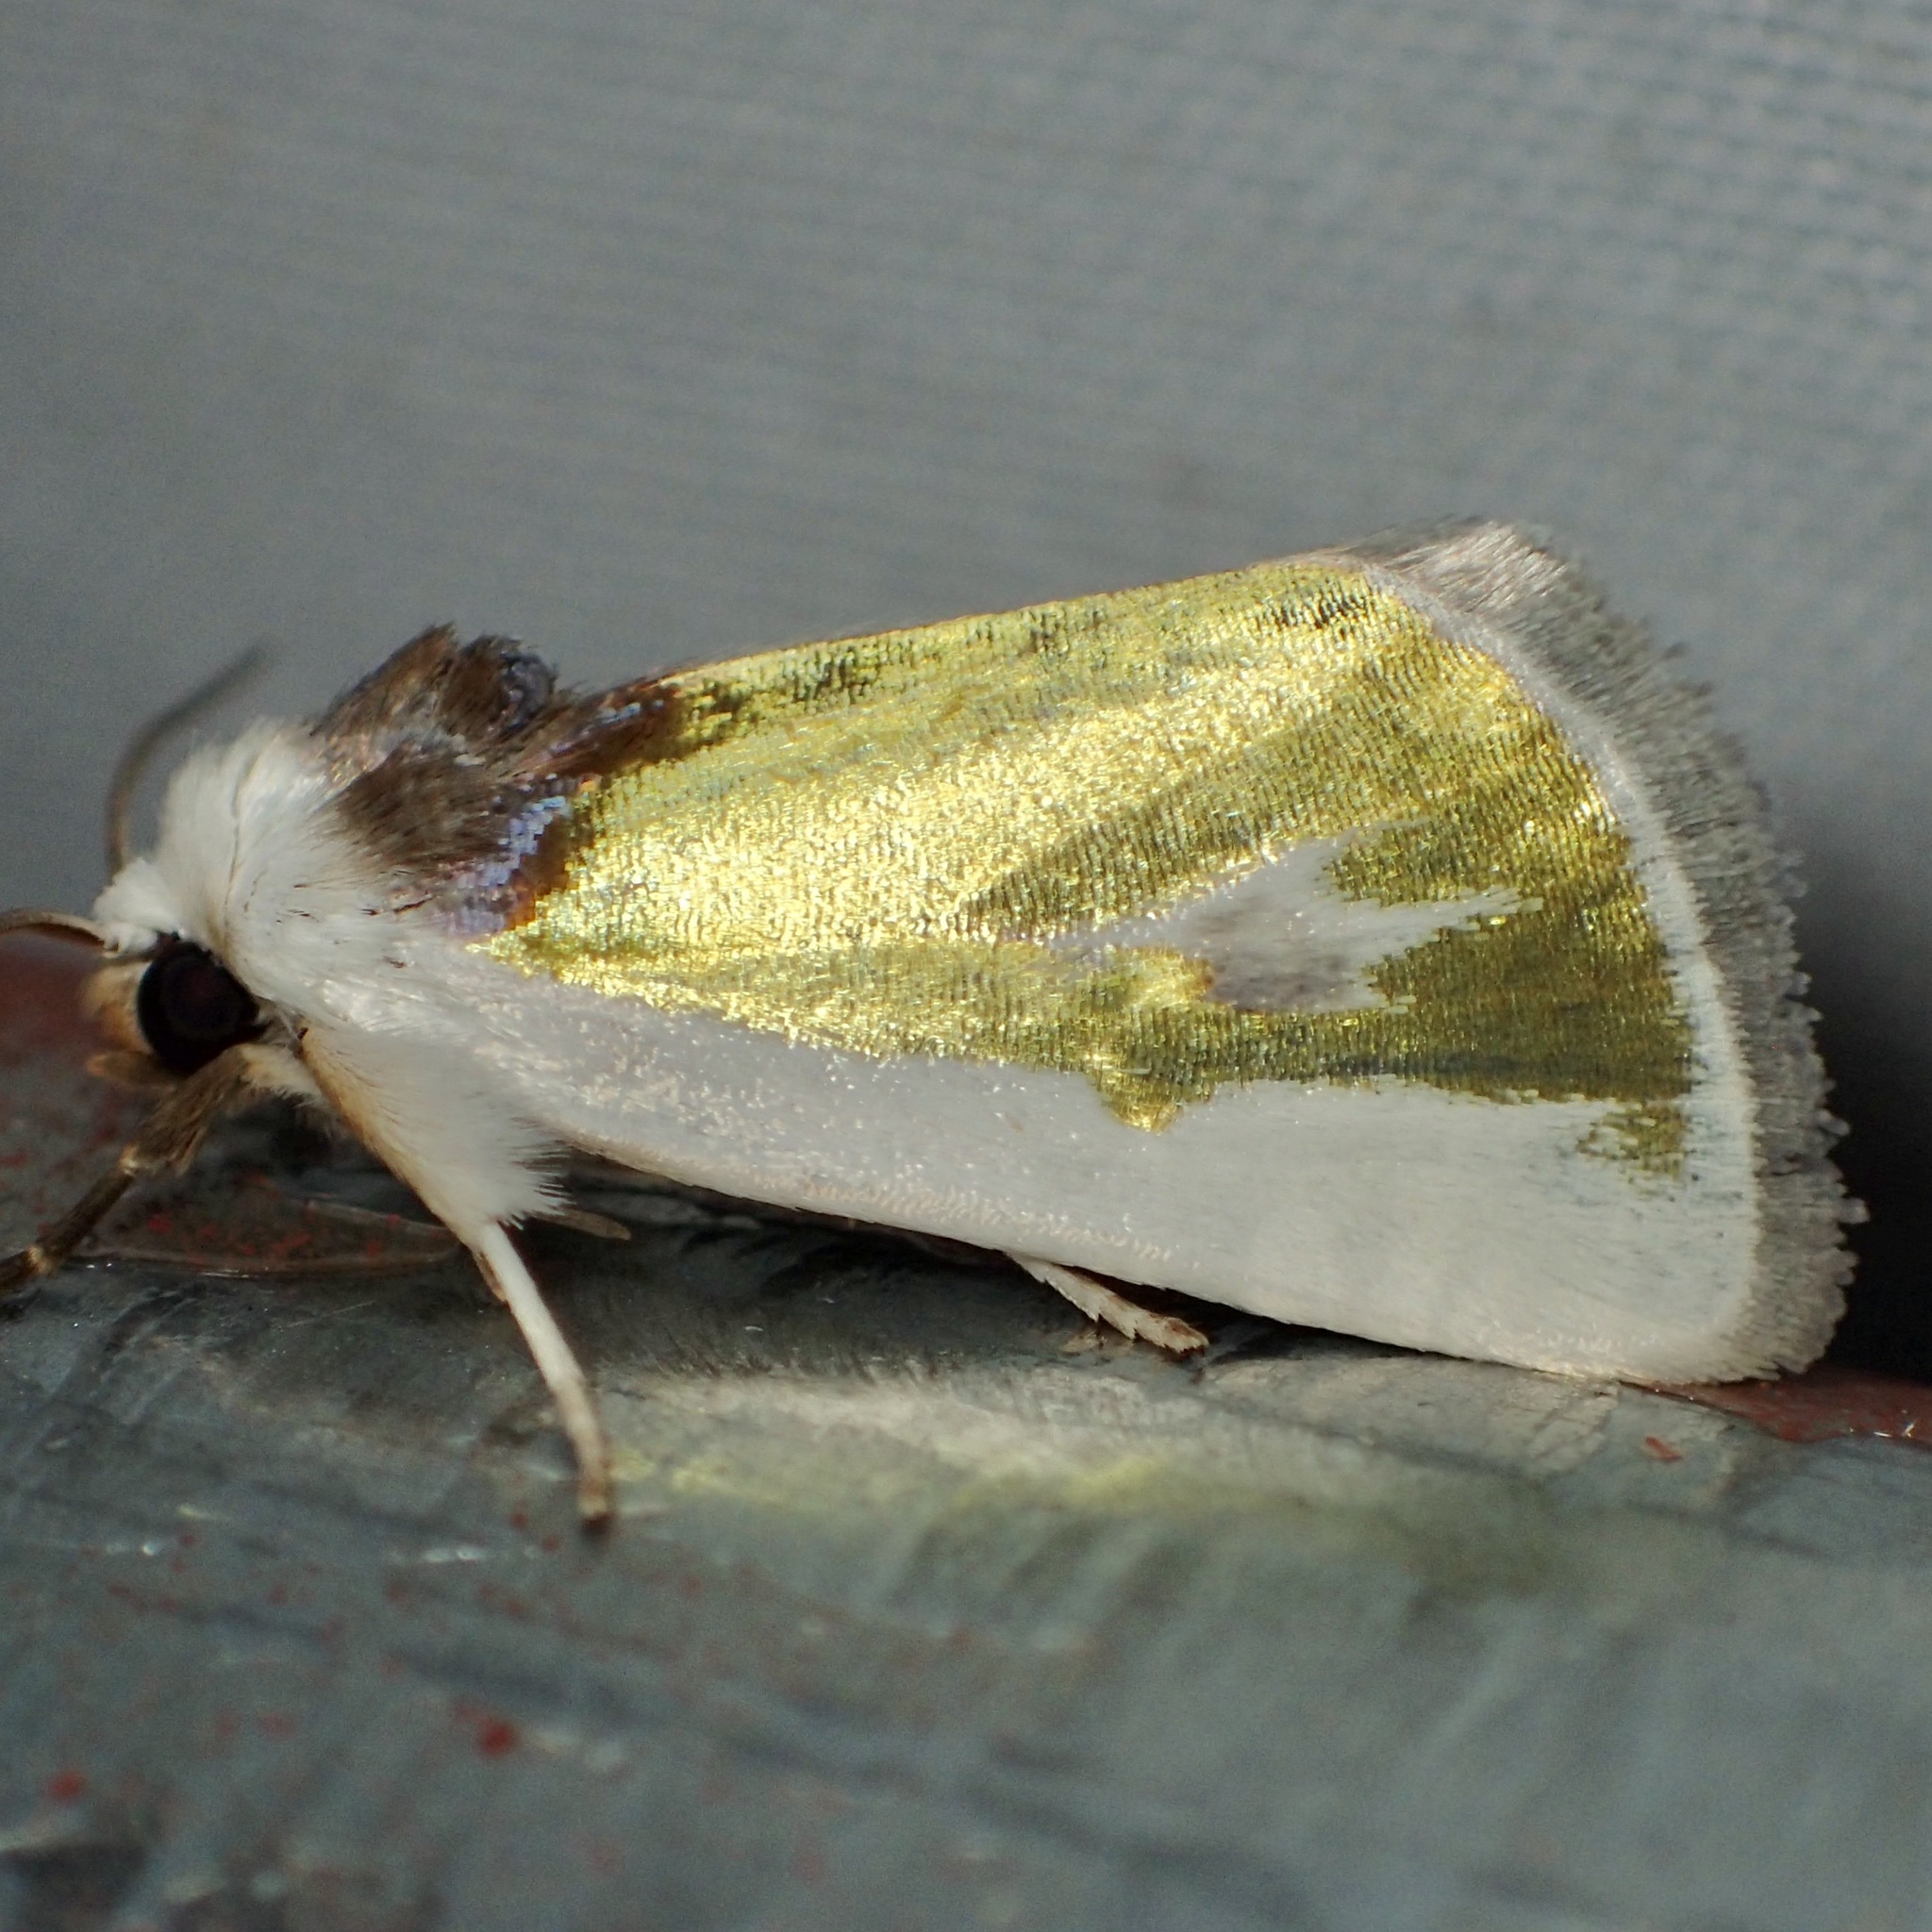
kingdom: Animalia
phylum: Arthropoda
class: Insecta
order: Lepidoptera
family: Noctuidae
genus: Neumoegenia
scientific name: Neumoegenia poetica
